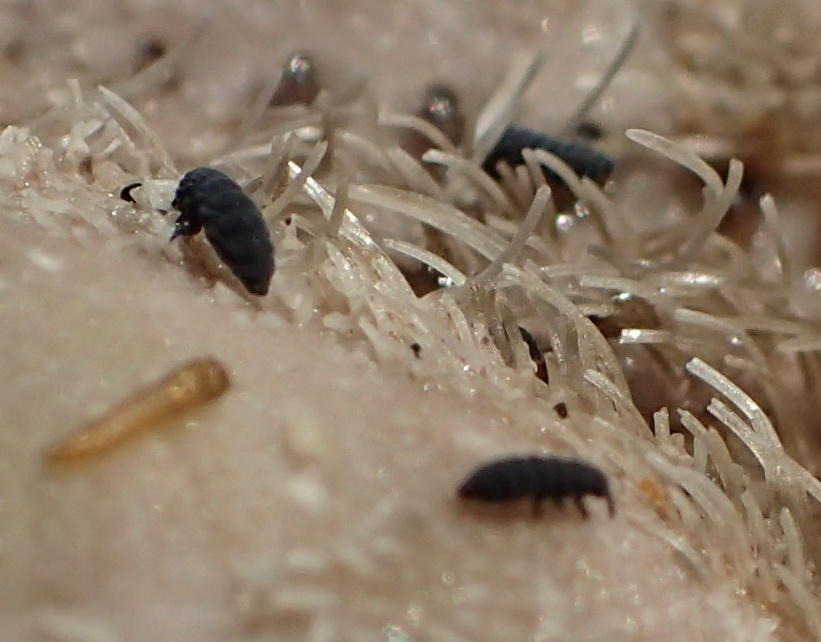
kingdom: Animalia
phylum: Arthropoda
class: Collembola
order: Poduromorpha
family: Neanuridae
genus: Anurida
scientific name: Anurida maritima
